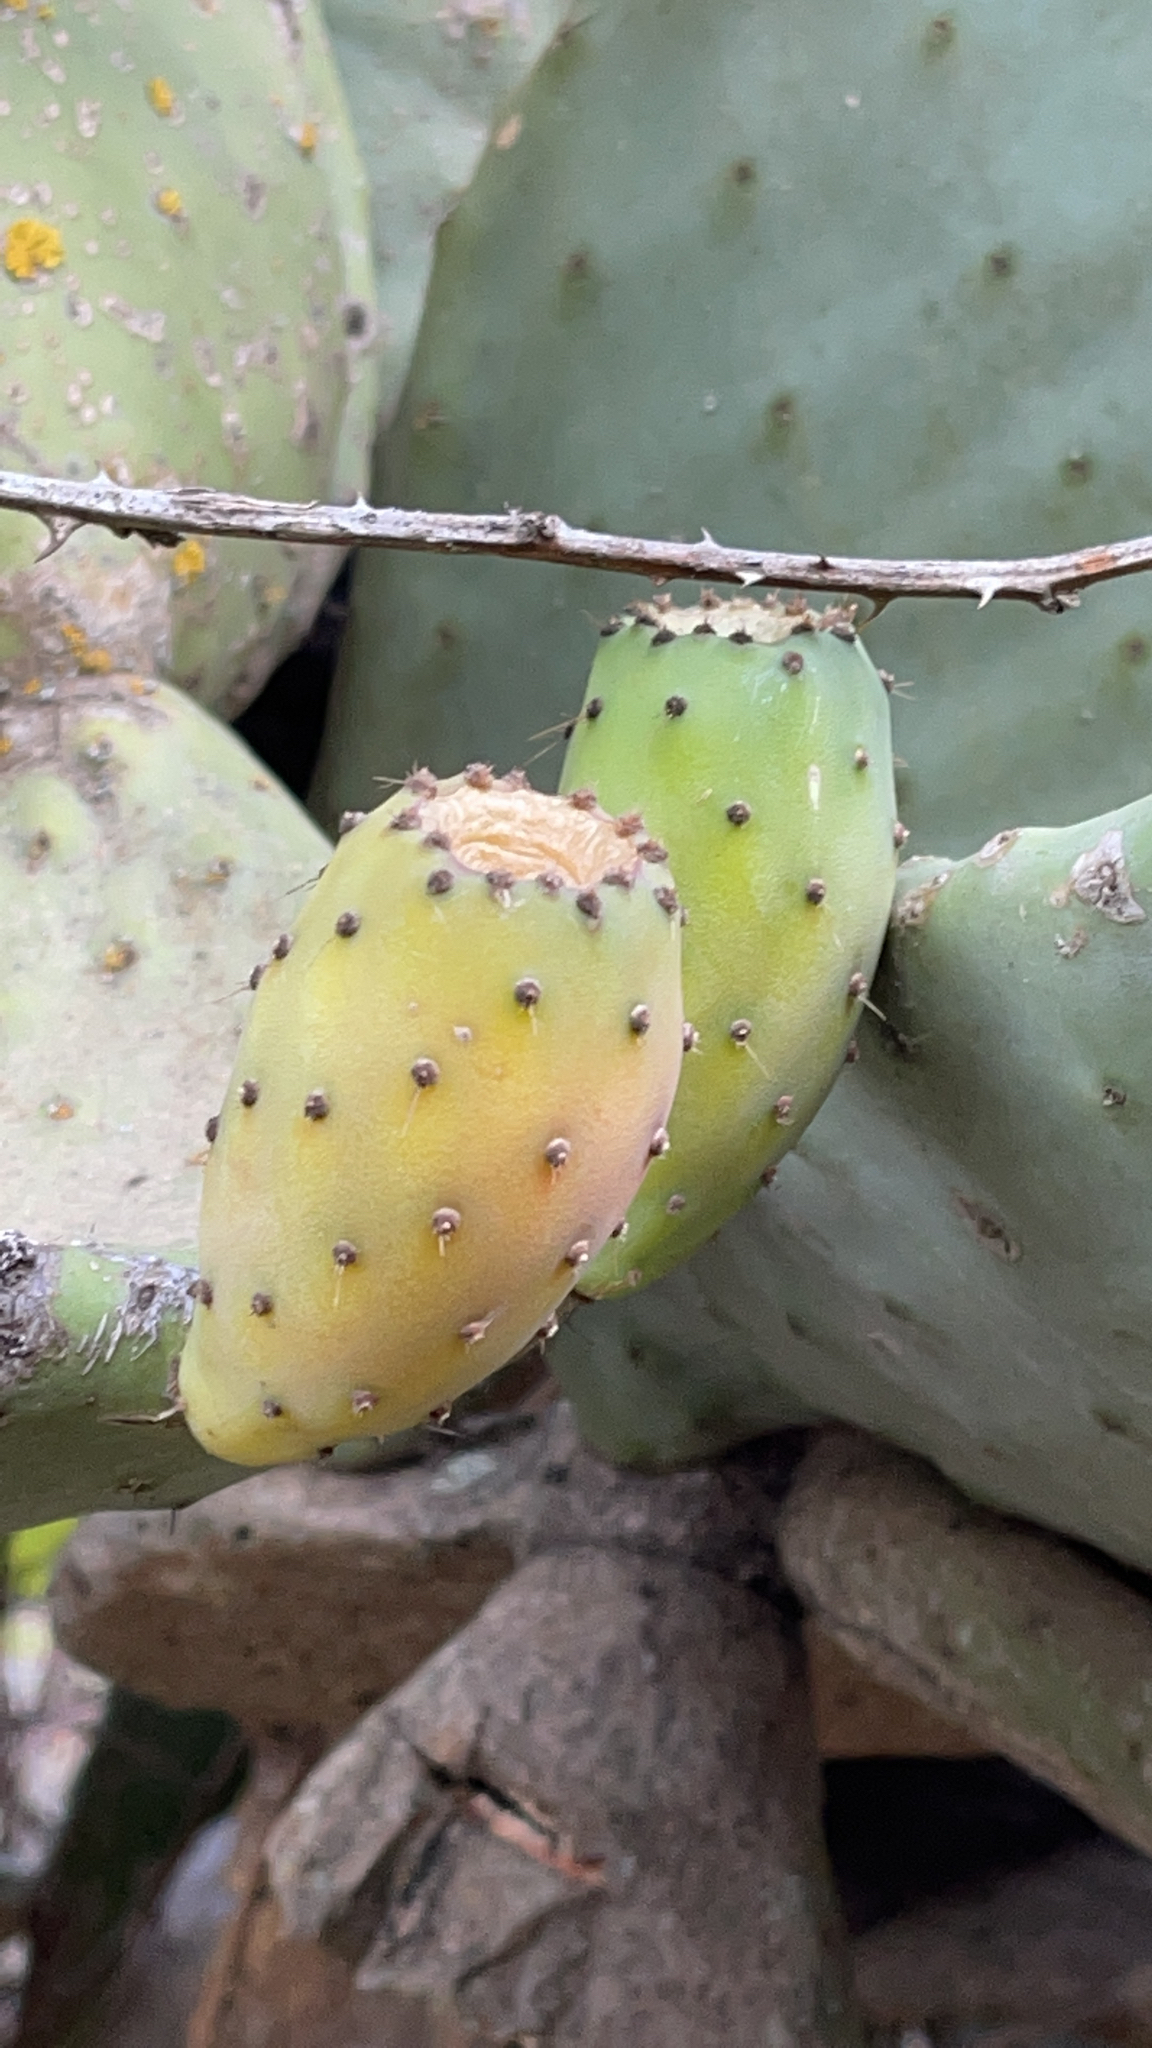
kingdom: Plantae
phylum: Tracheophyta
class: Magnoliopsida
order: Caryophyllales
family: Cactaceae
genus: Opuntia
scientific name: Opuntia ficus-indica
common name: Barbary fig
